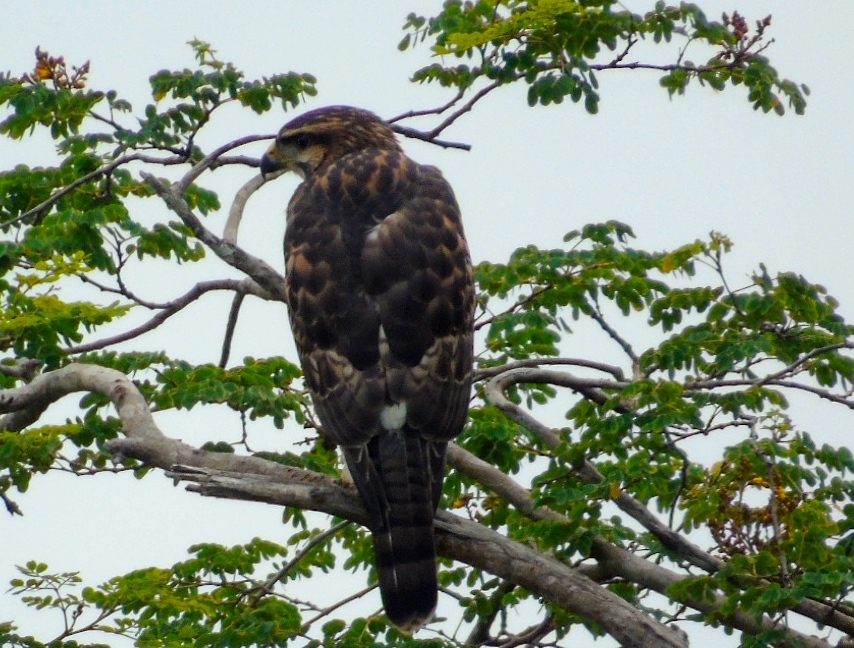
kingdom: Animalia
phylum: Chordata
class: Aves
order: Accipitriformes
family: Accipitridae
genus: Buteo
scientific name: Buteo nitidus
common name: Grey-lined hawk
